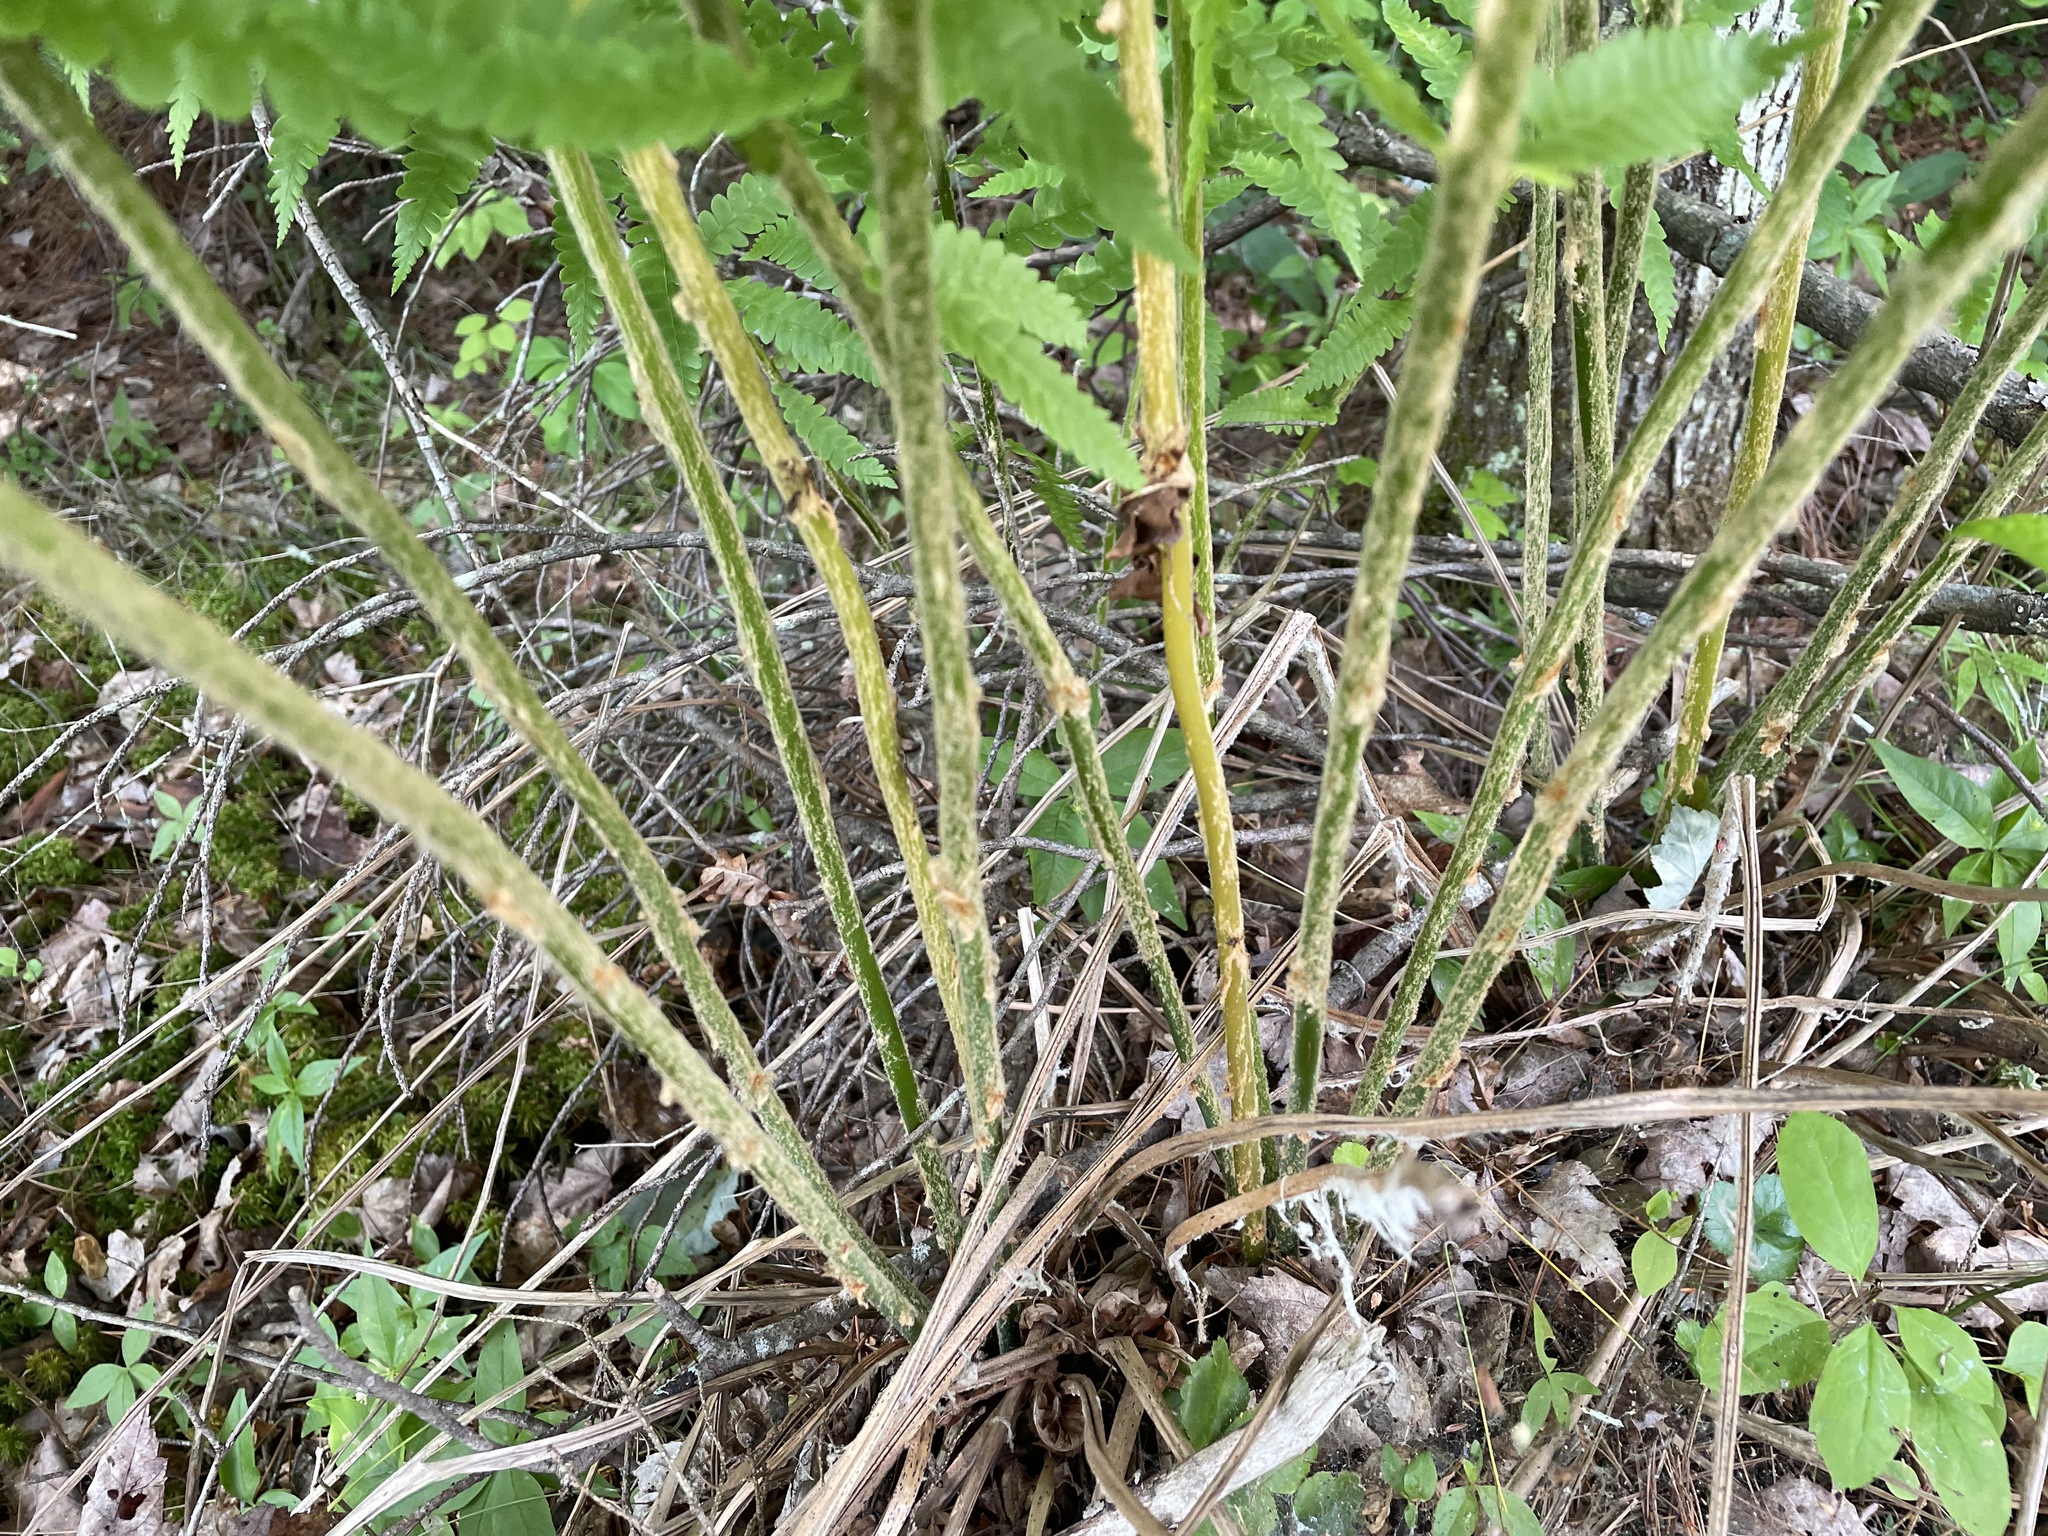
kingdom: Plantae
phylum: Tracheophyta
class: Polypodiopsida
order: Osmundales
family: Osmundaceae
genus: Osmundastrum
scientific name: Osmundastrum cinnamomeum
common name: Cinnamon fern
